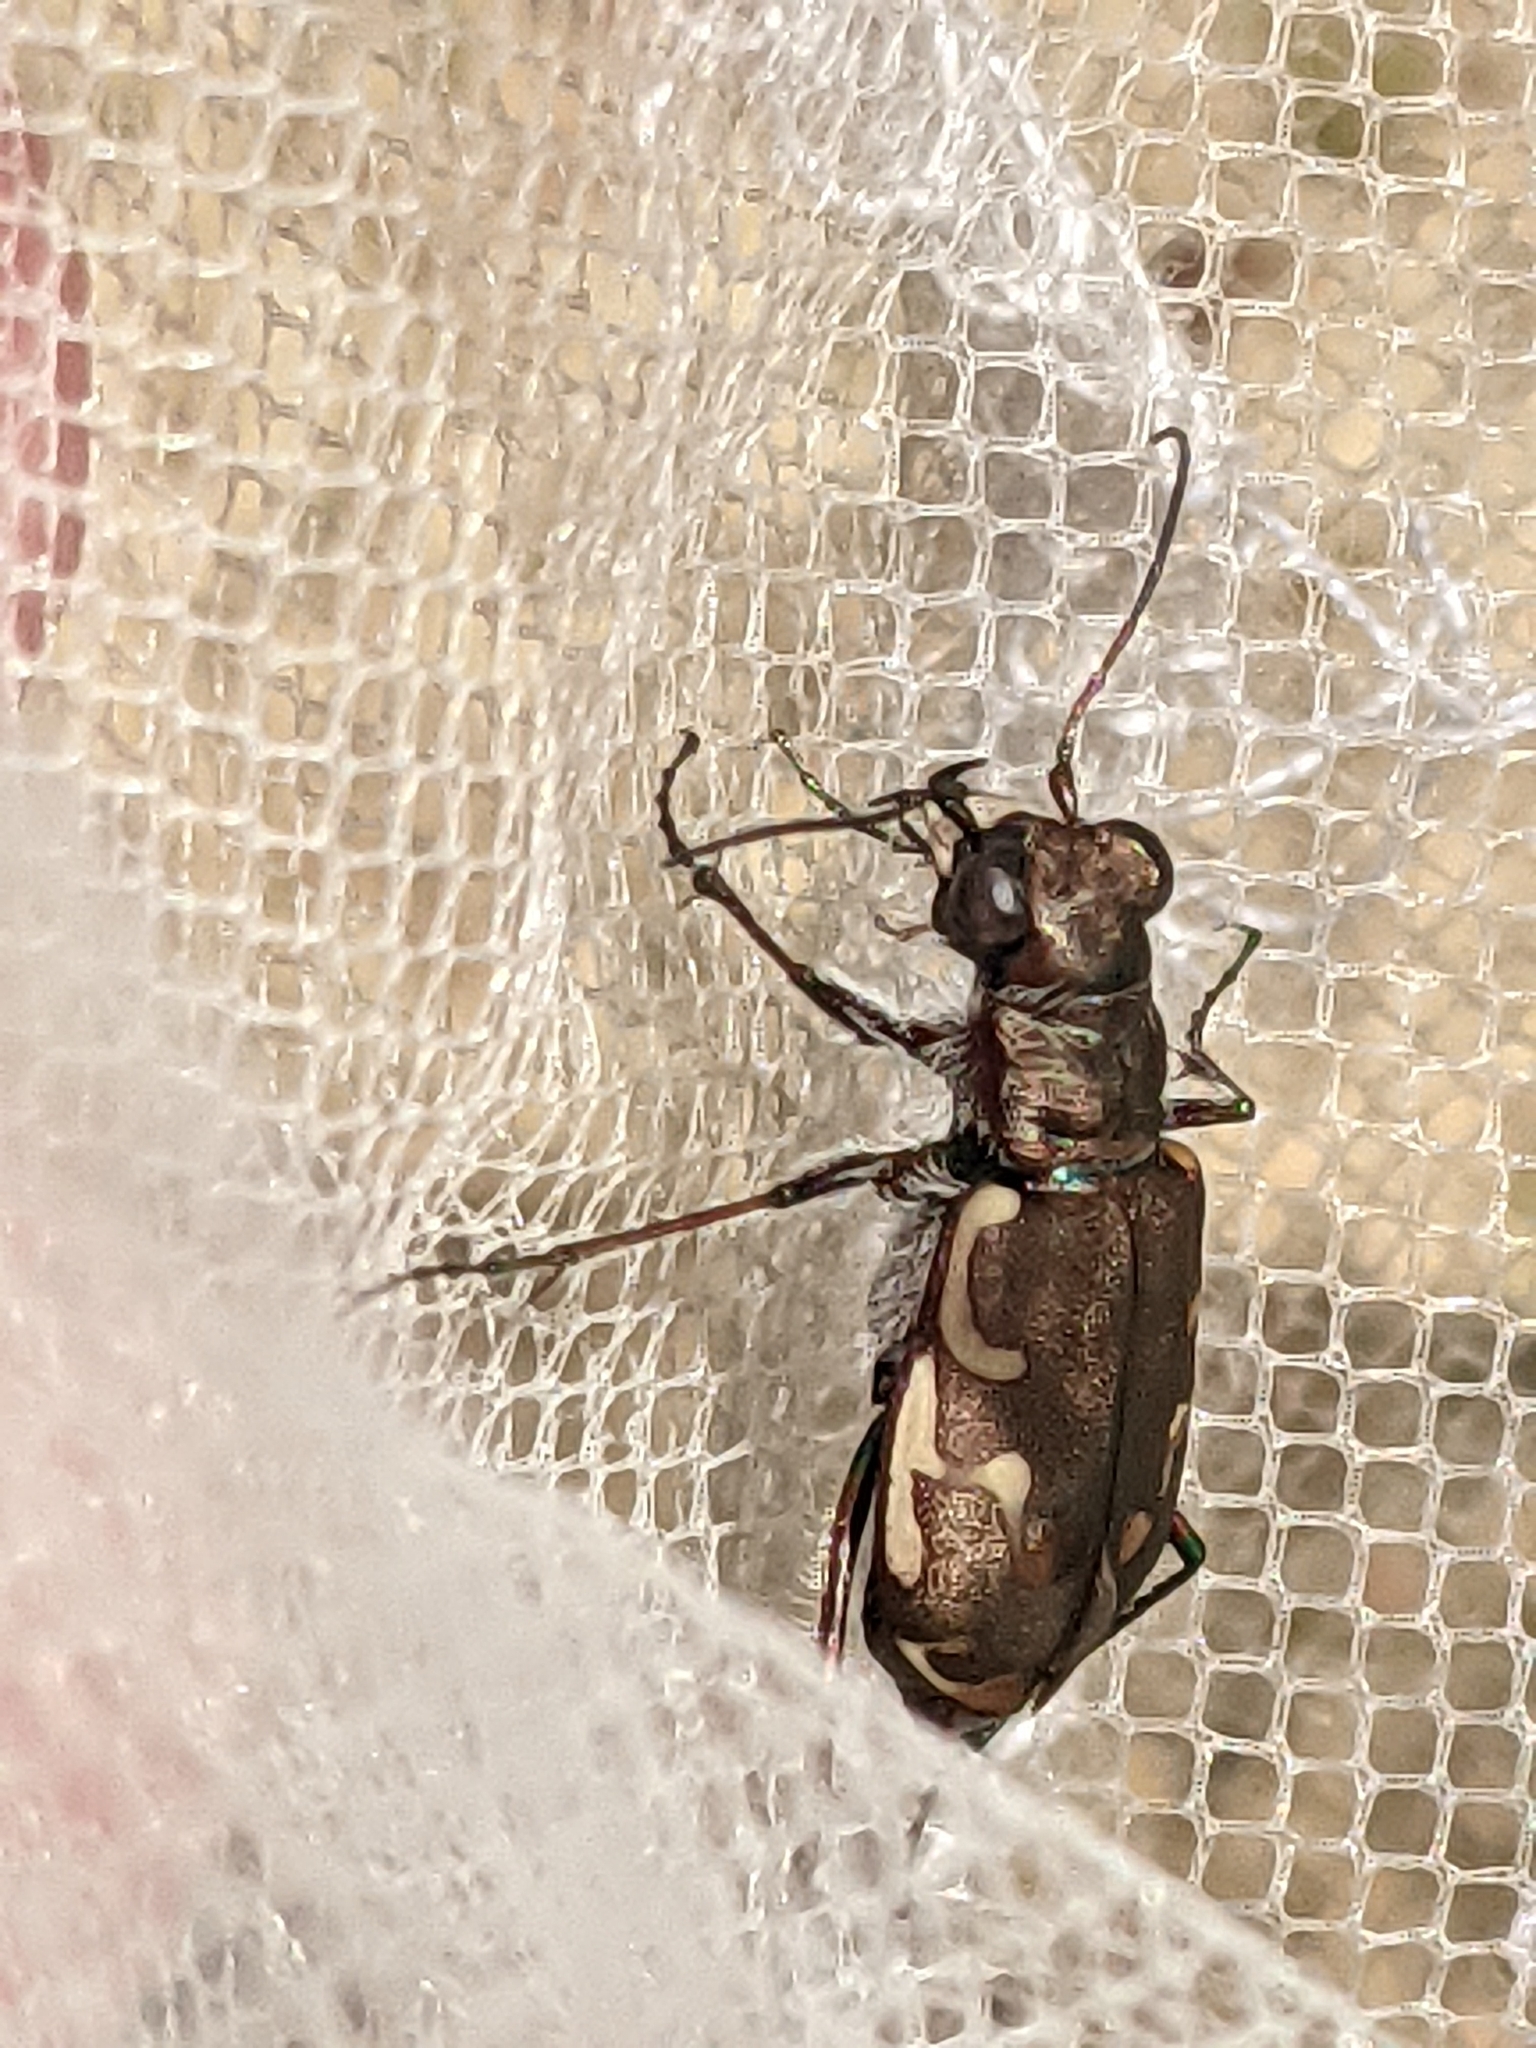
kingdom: Animalia
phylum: Arthropoda
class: Insecta
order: Coleoptera
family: Carabidae
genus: Cicindela
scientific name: Cicindela repanda
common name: Bronzed tiger beetle
